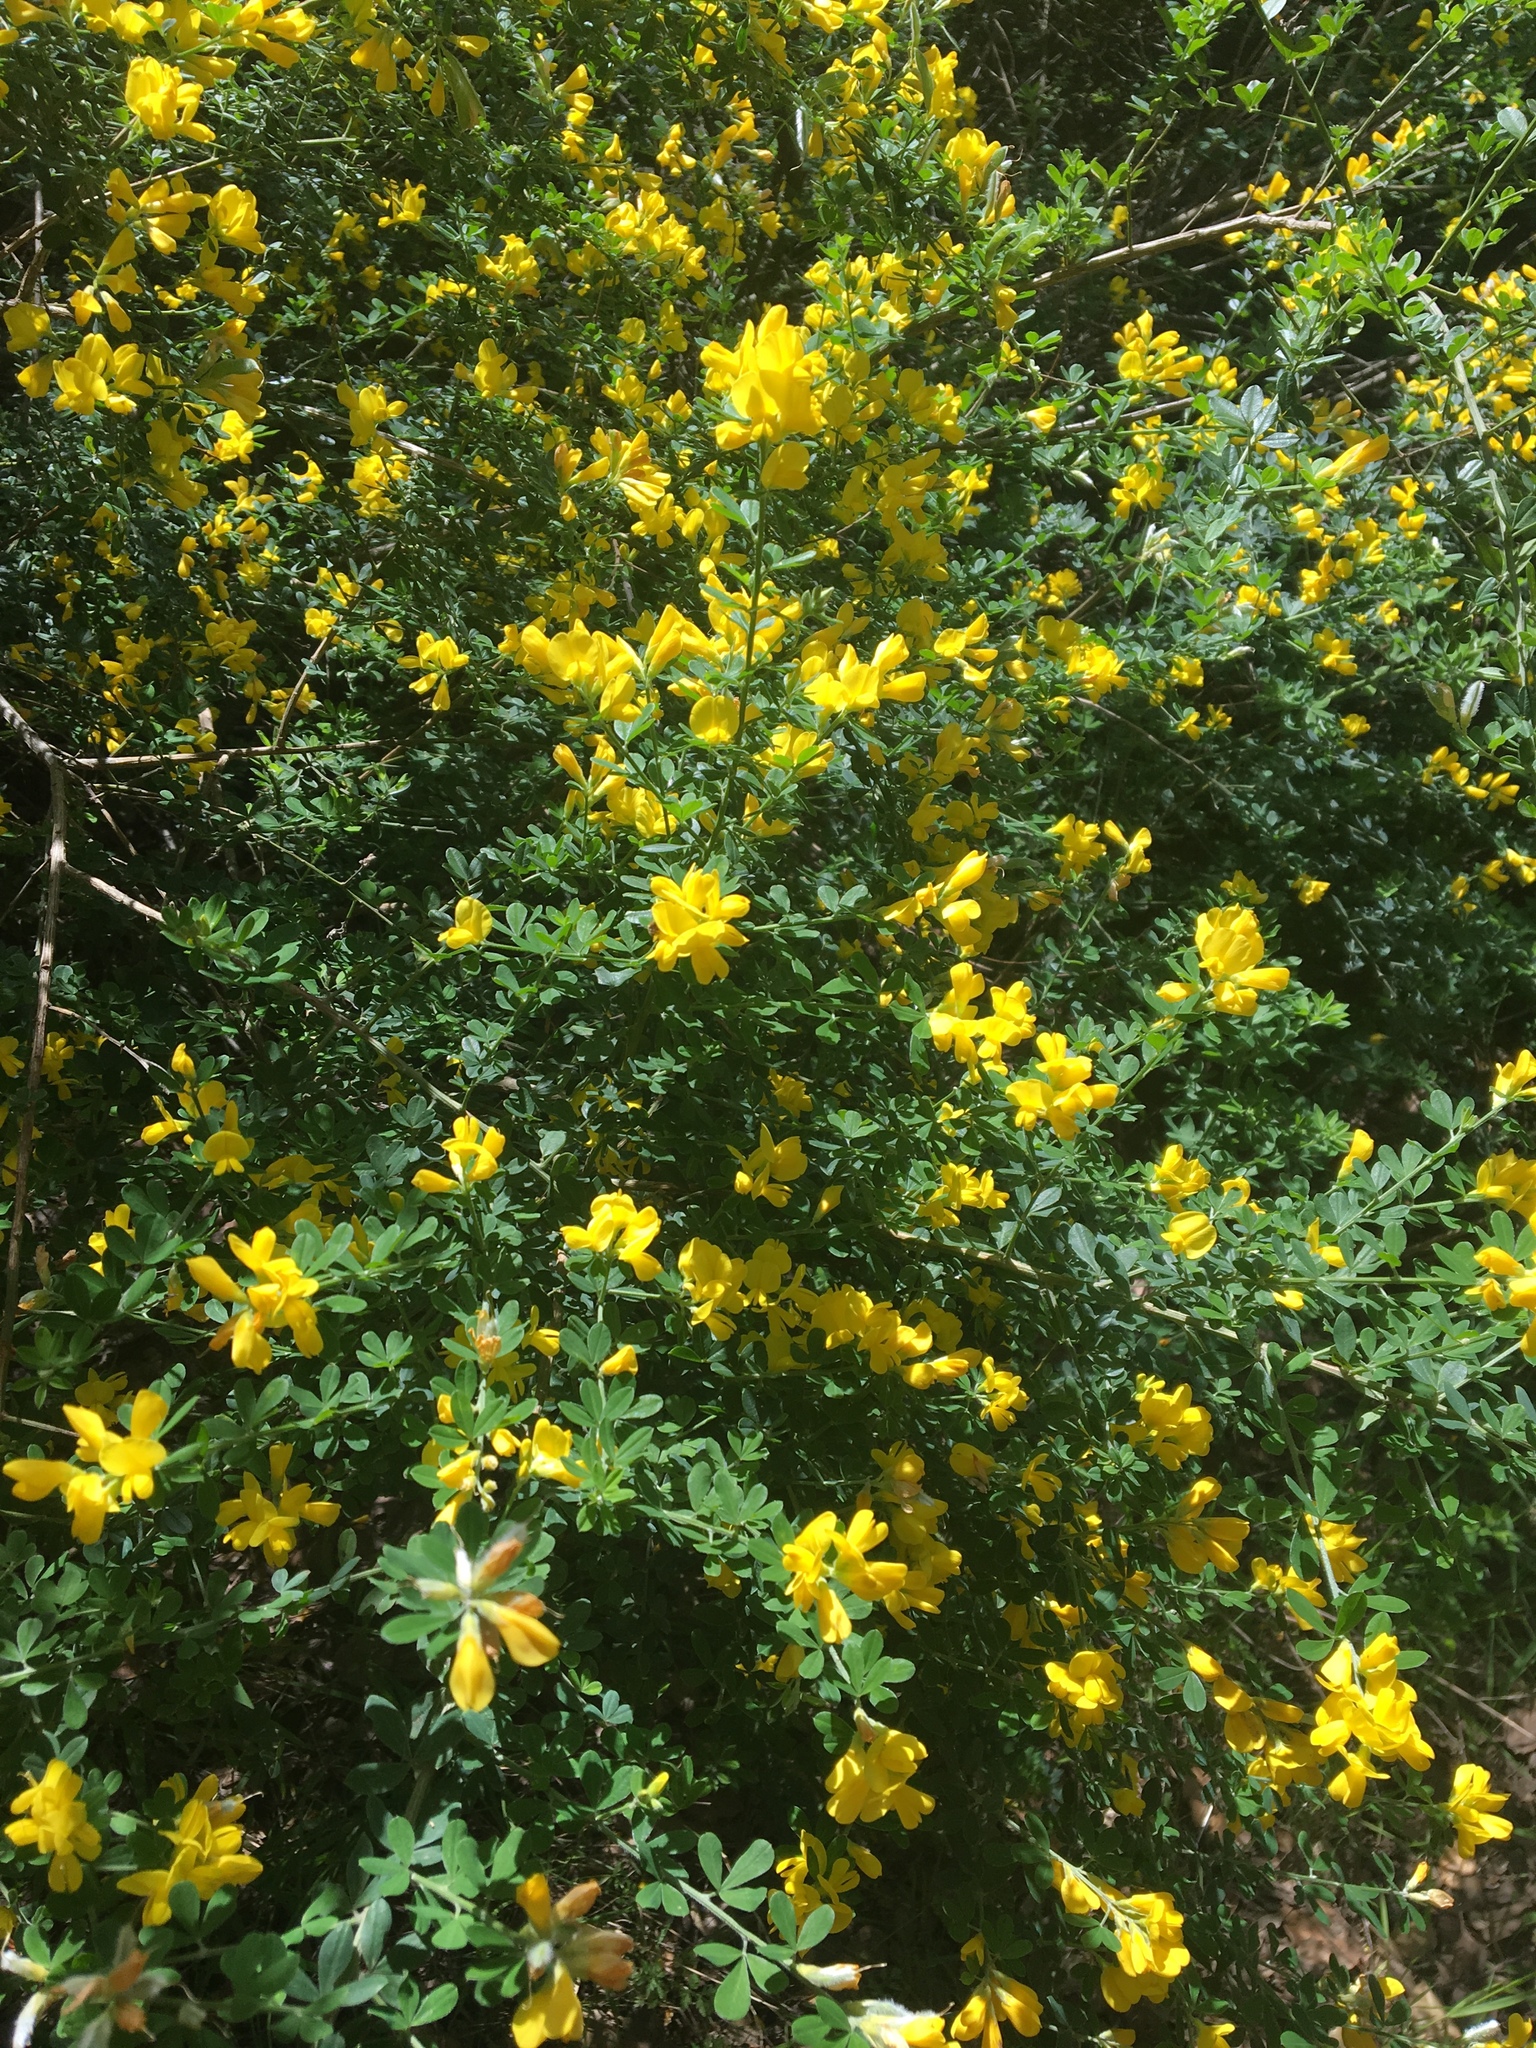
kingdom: Plantae
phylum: Tracheophyta
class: Magnoliopsida
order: Fabales
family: Fabaceae
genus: Genista
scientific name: Genista monspessulana
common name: Montpellier broom
